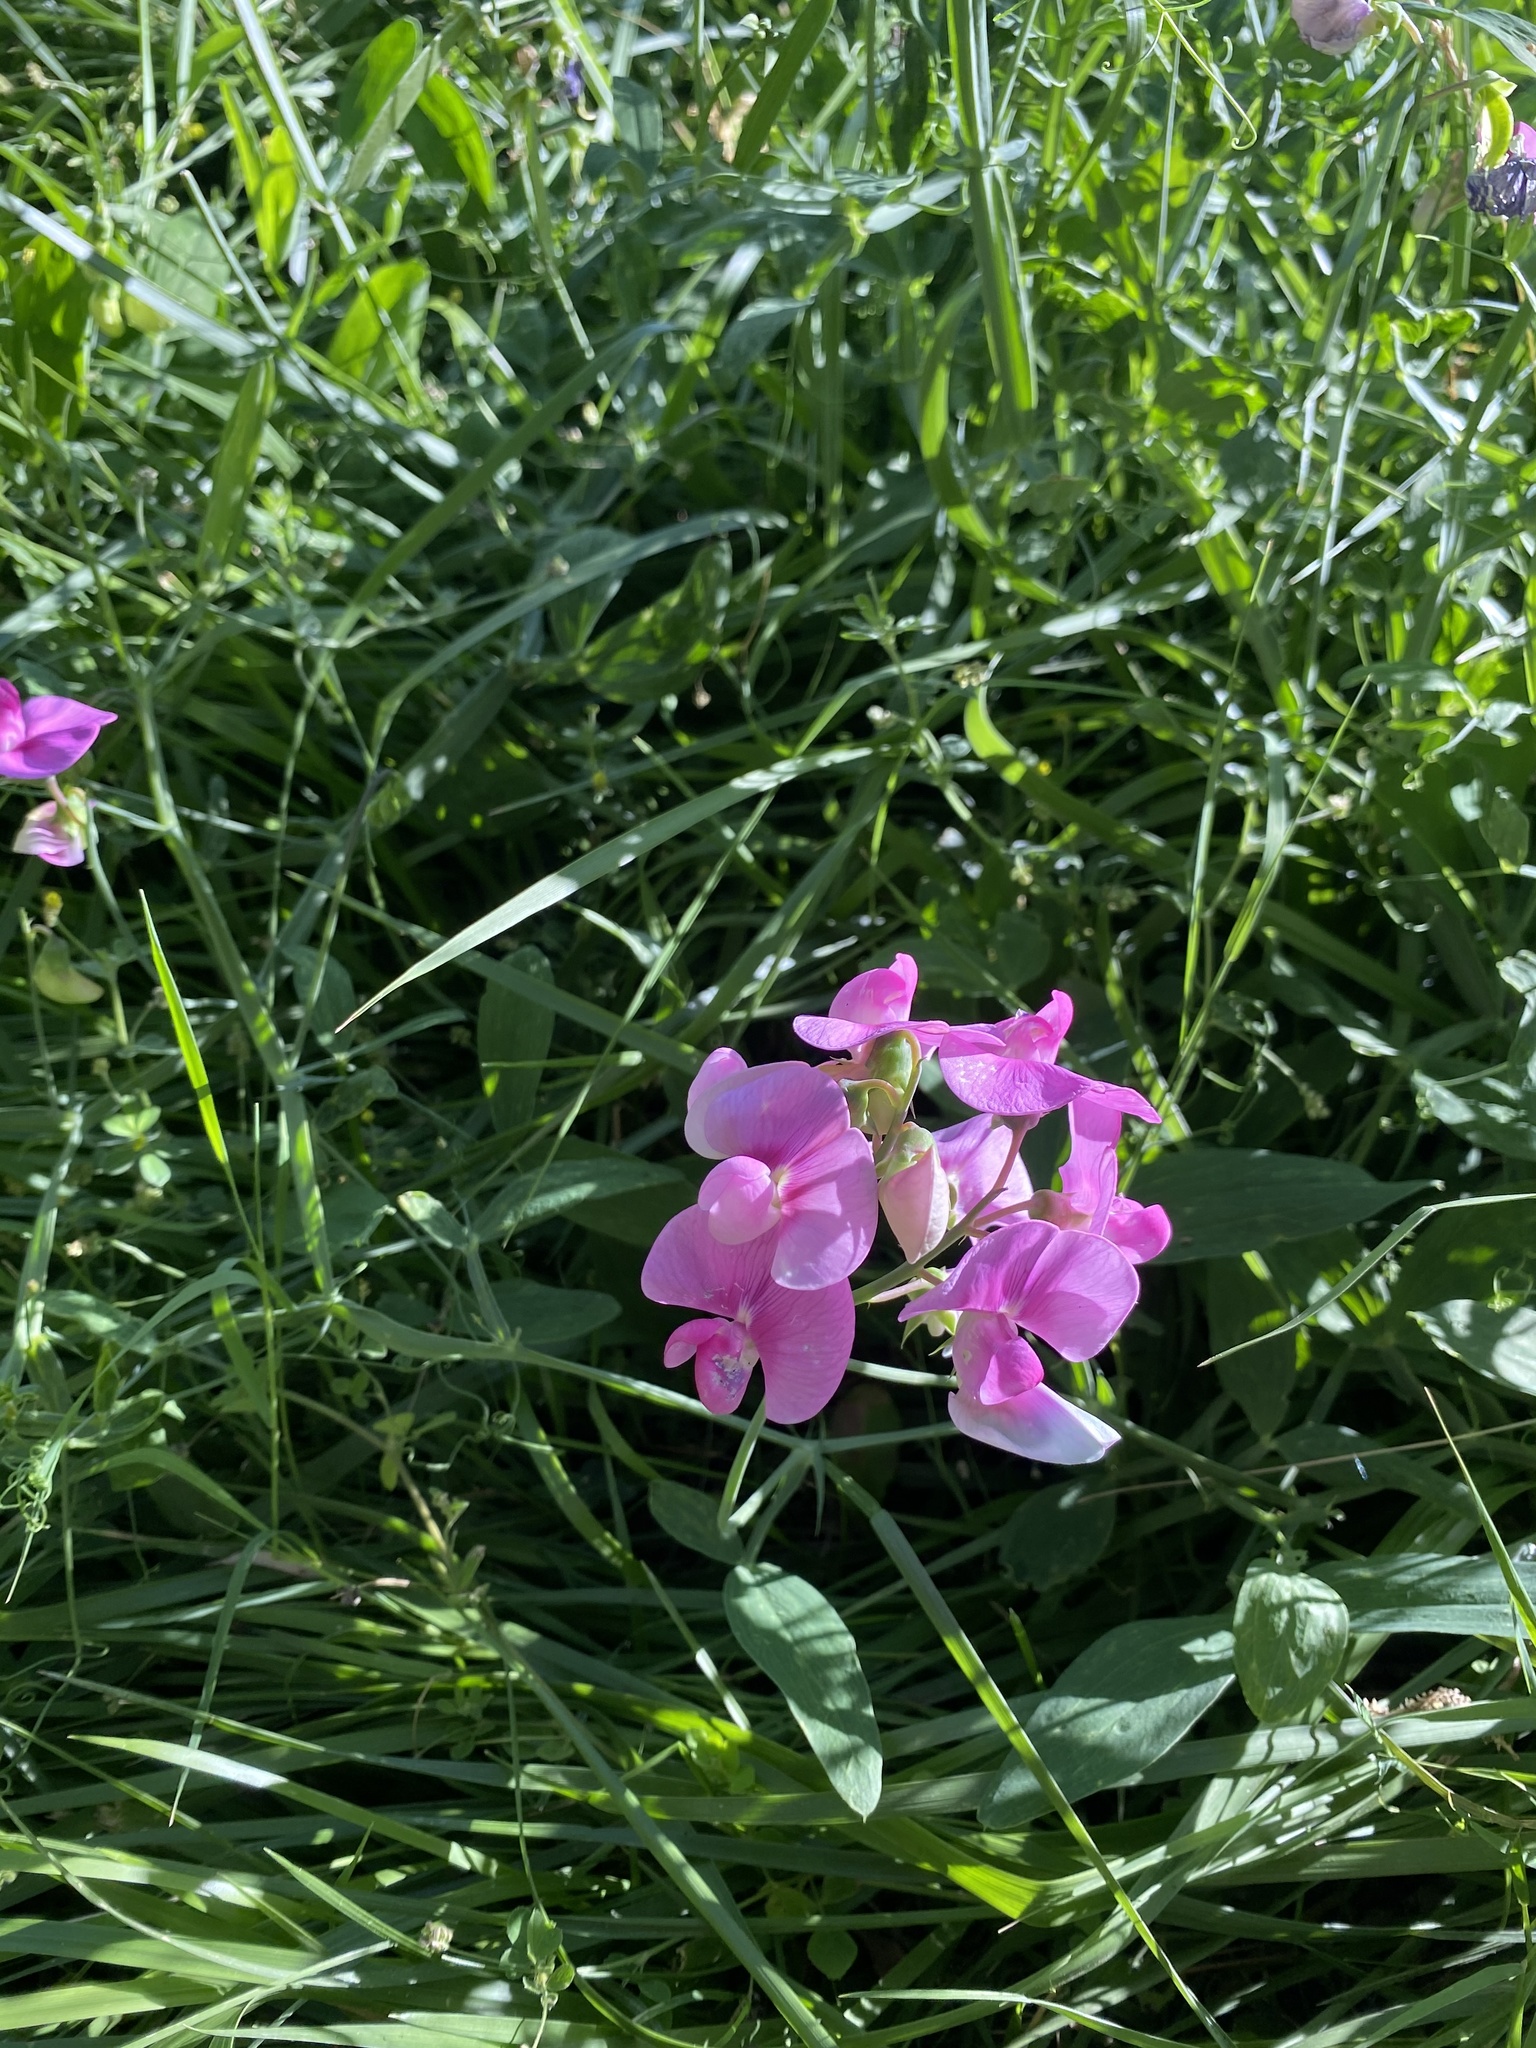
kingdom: Plantae
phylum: Tracheophyta
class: Magnoliopsida
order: Fabales
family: Fabaceae
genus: Lathyrus
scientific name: Lathyrus latifolius
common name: Perennial pea
